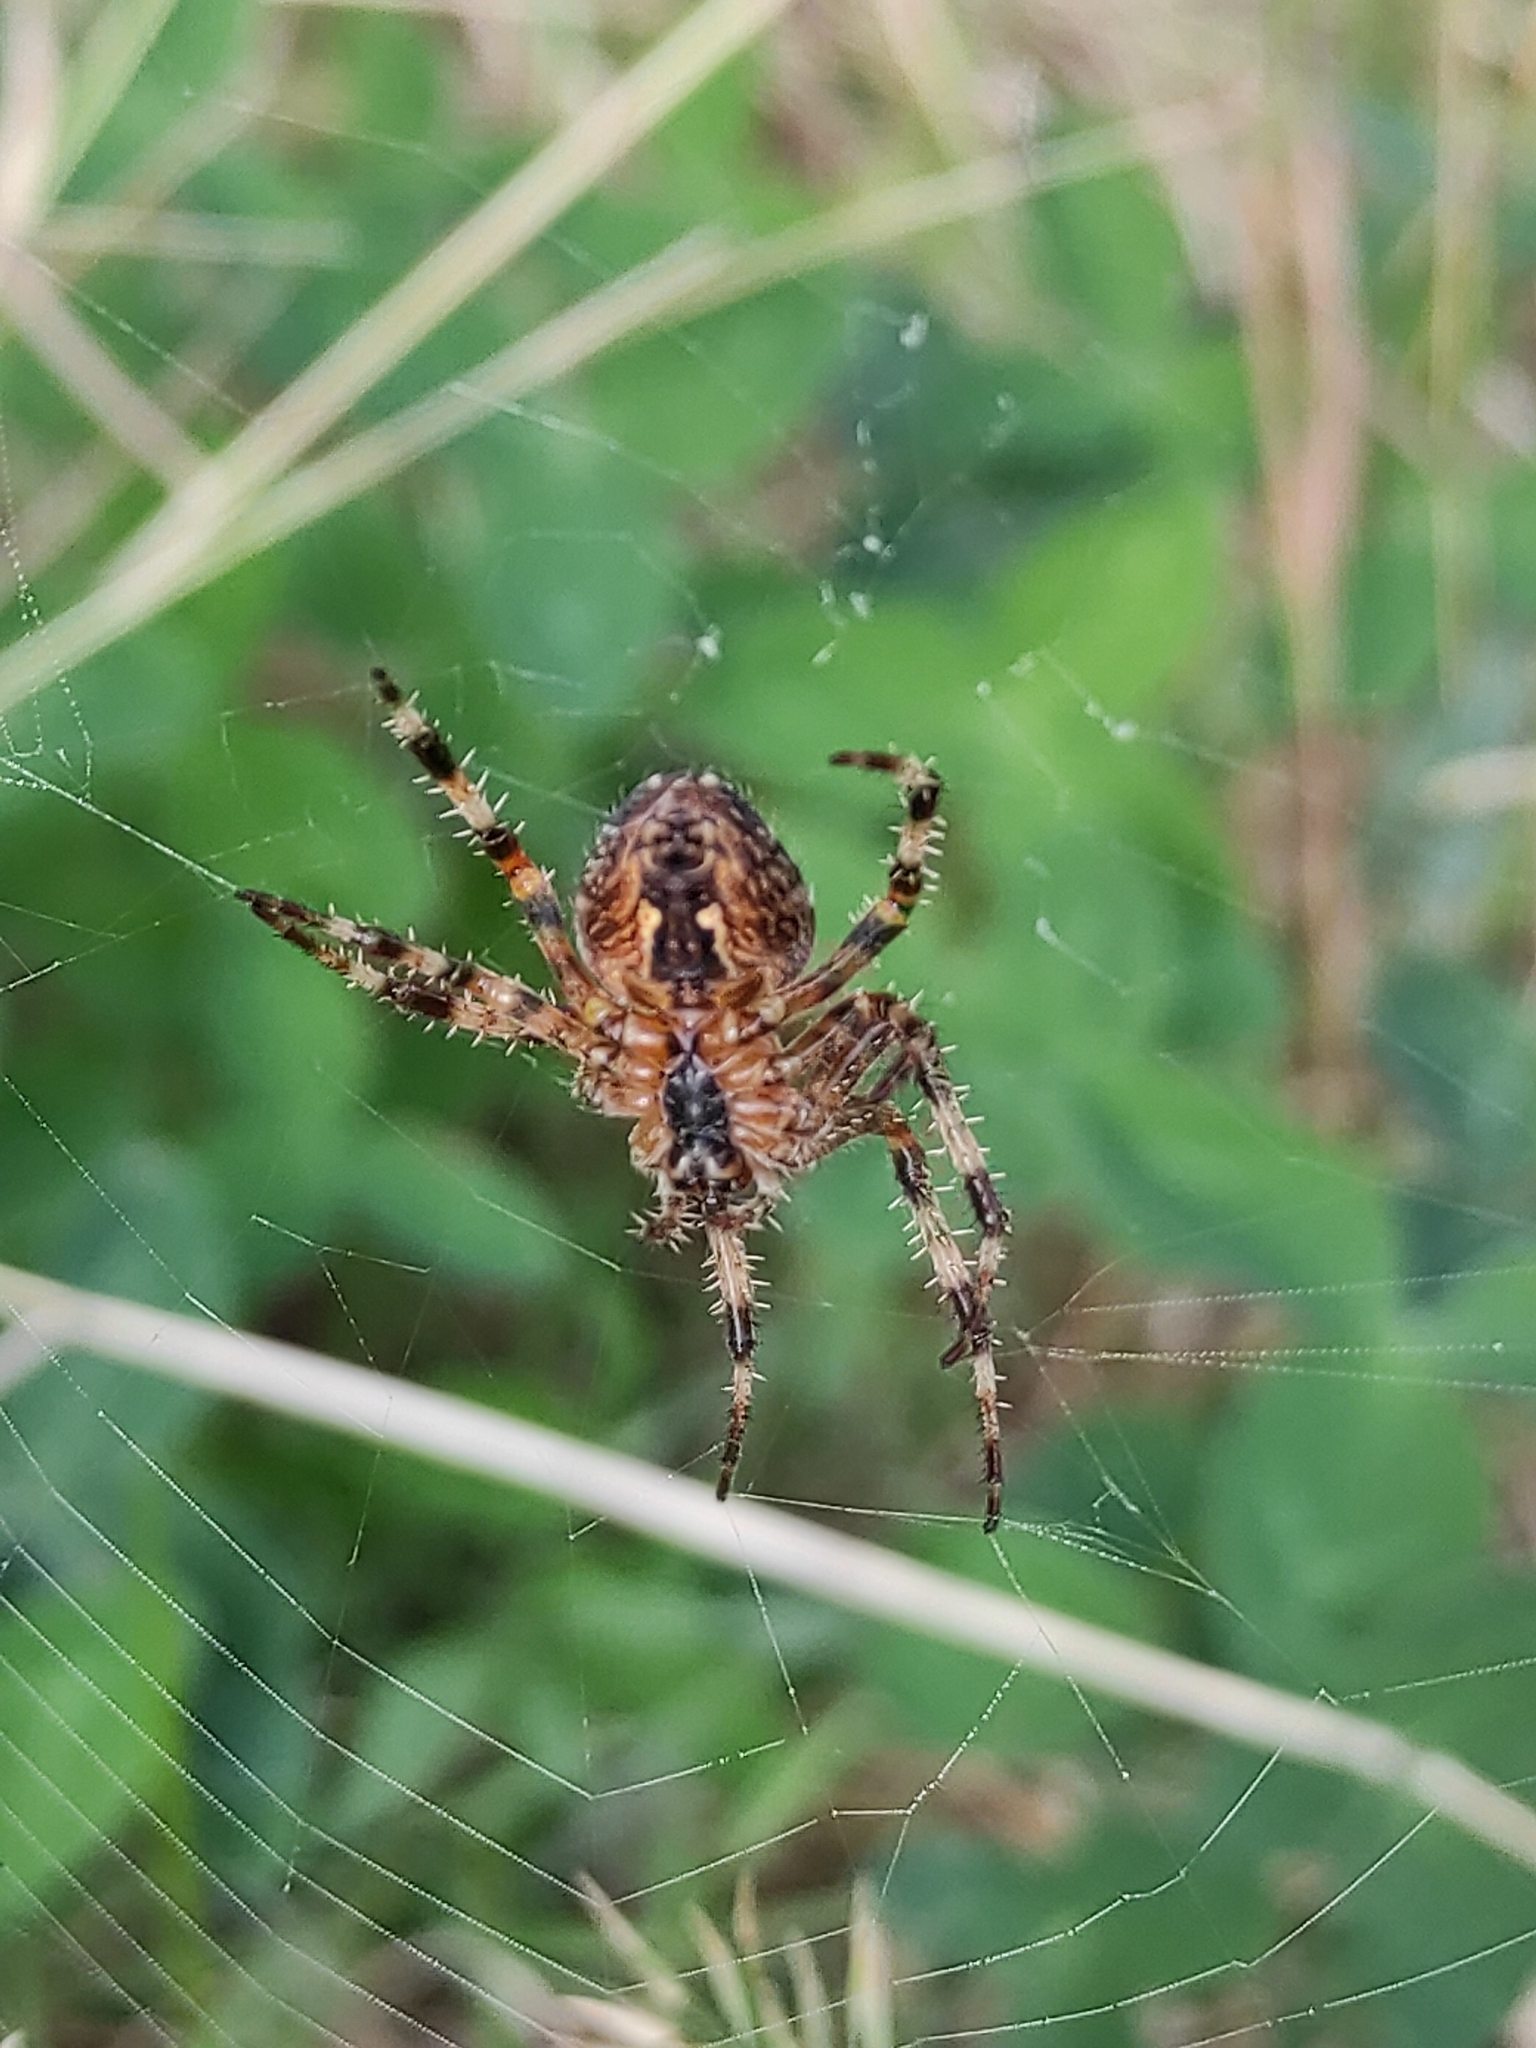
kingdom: Animalia
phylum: Arthropoda
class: Arachnida
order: Araneae
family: Araneidae
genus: Araneus
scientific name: Araneus diadematus
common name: Cross orbweaver
